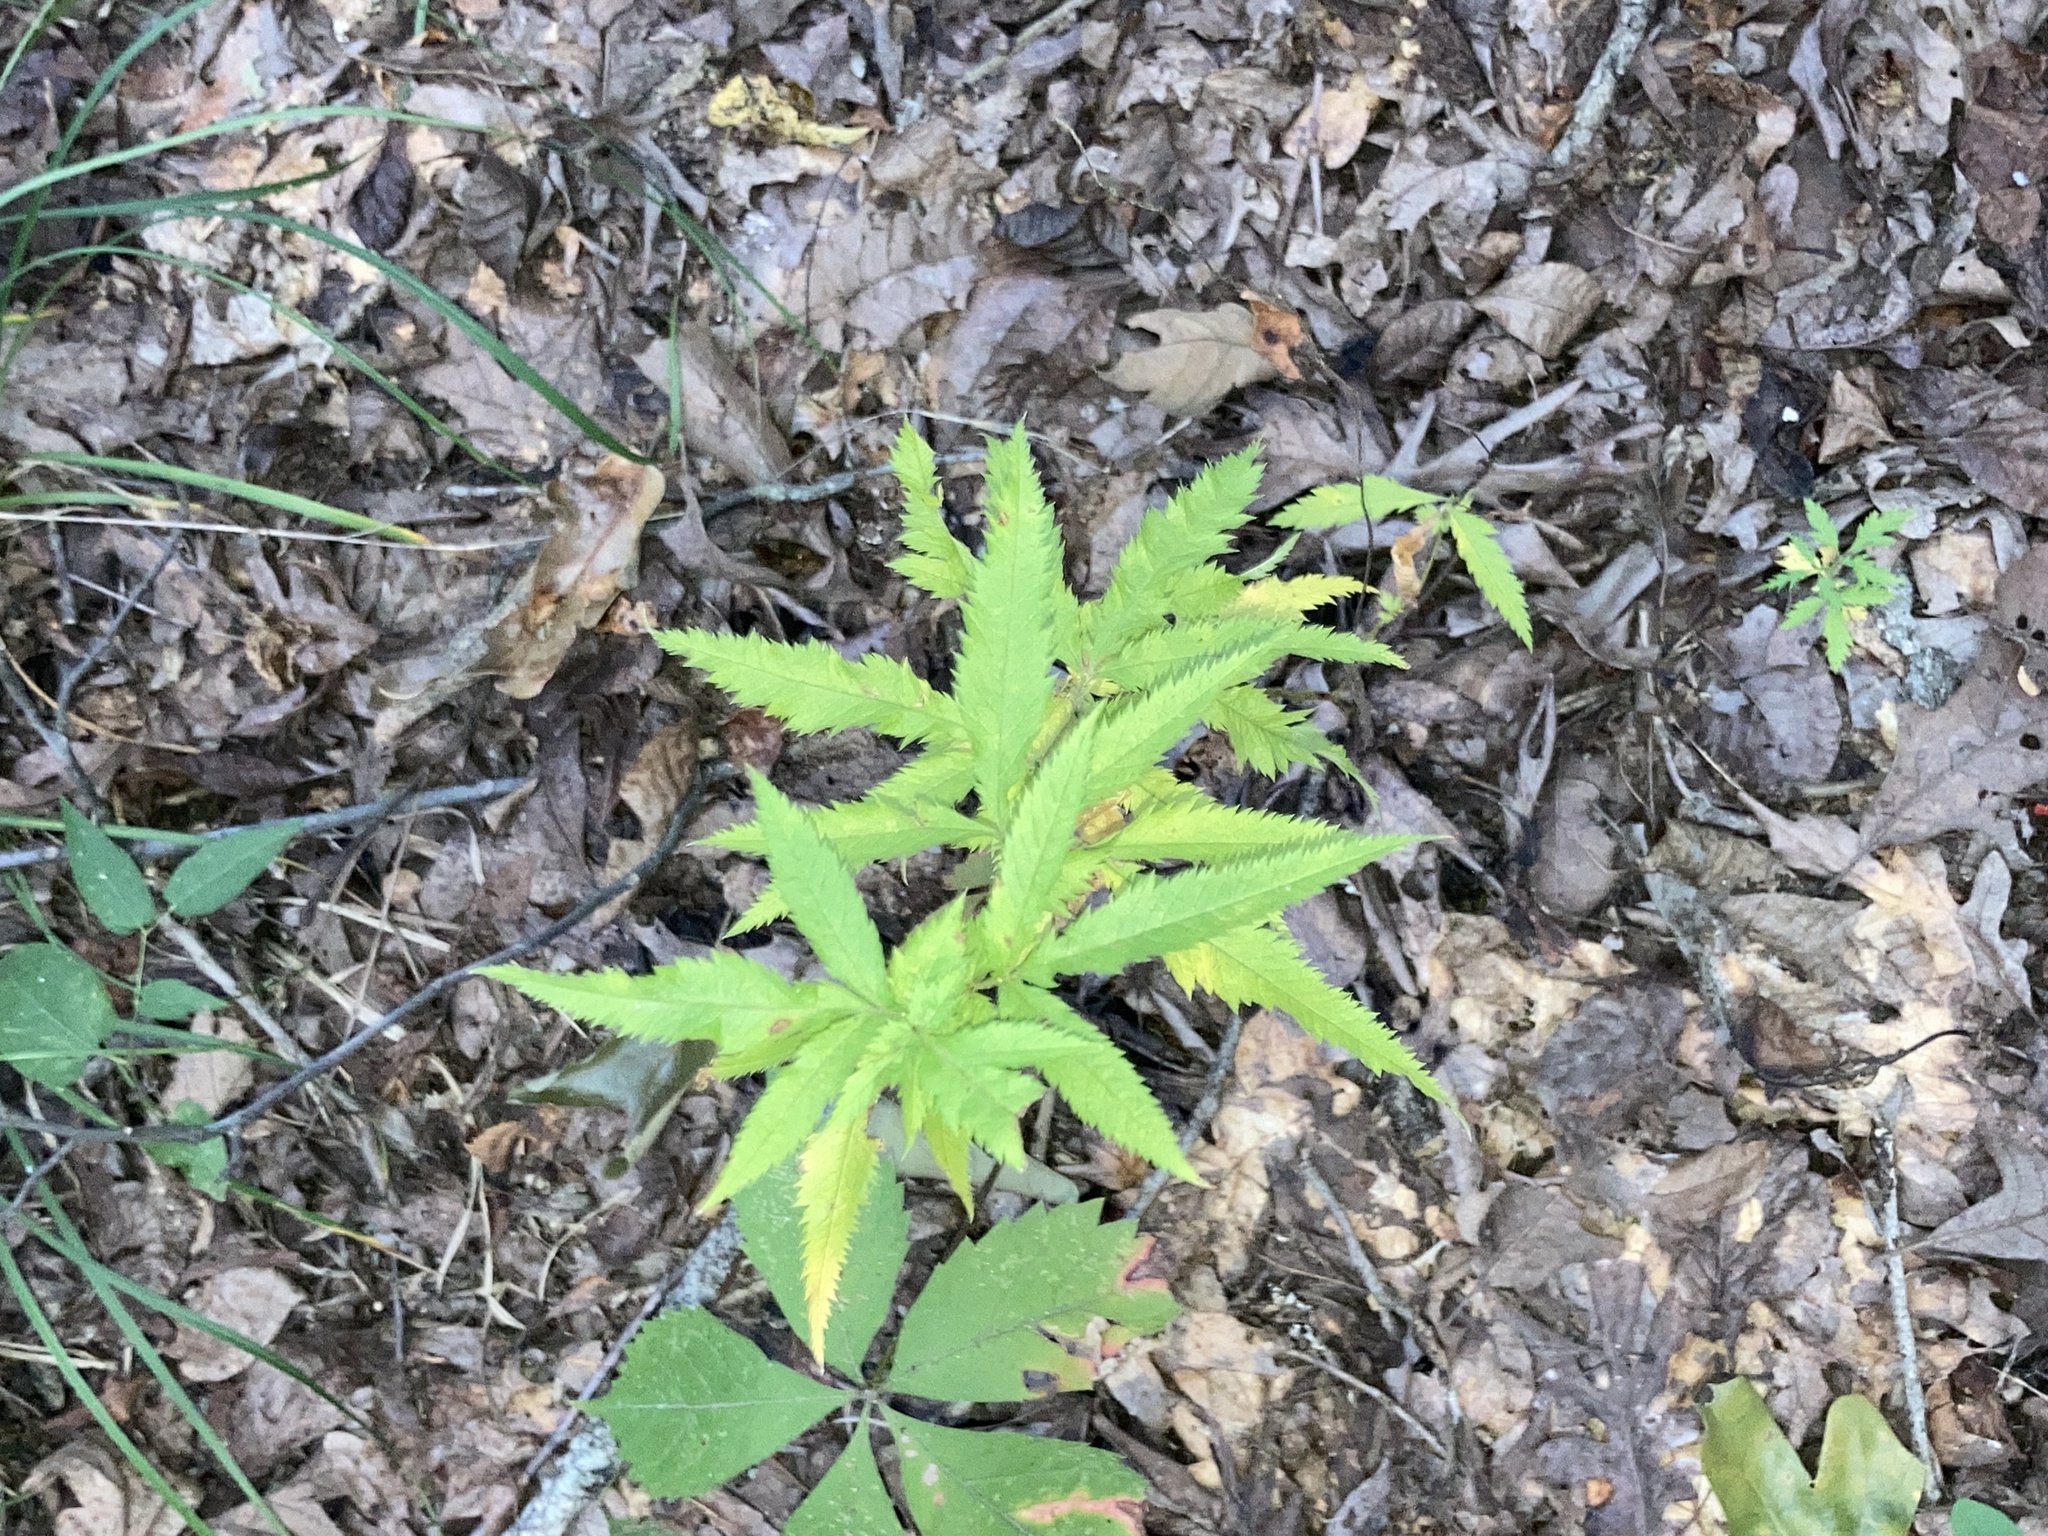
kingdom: Plantae
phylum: Tracheophyta
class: Magnoliopsida
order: Rosales
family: Rosaceae
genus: Gillenia
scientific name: Gillenia stipulata
